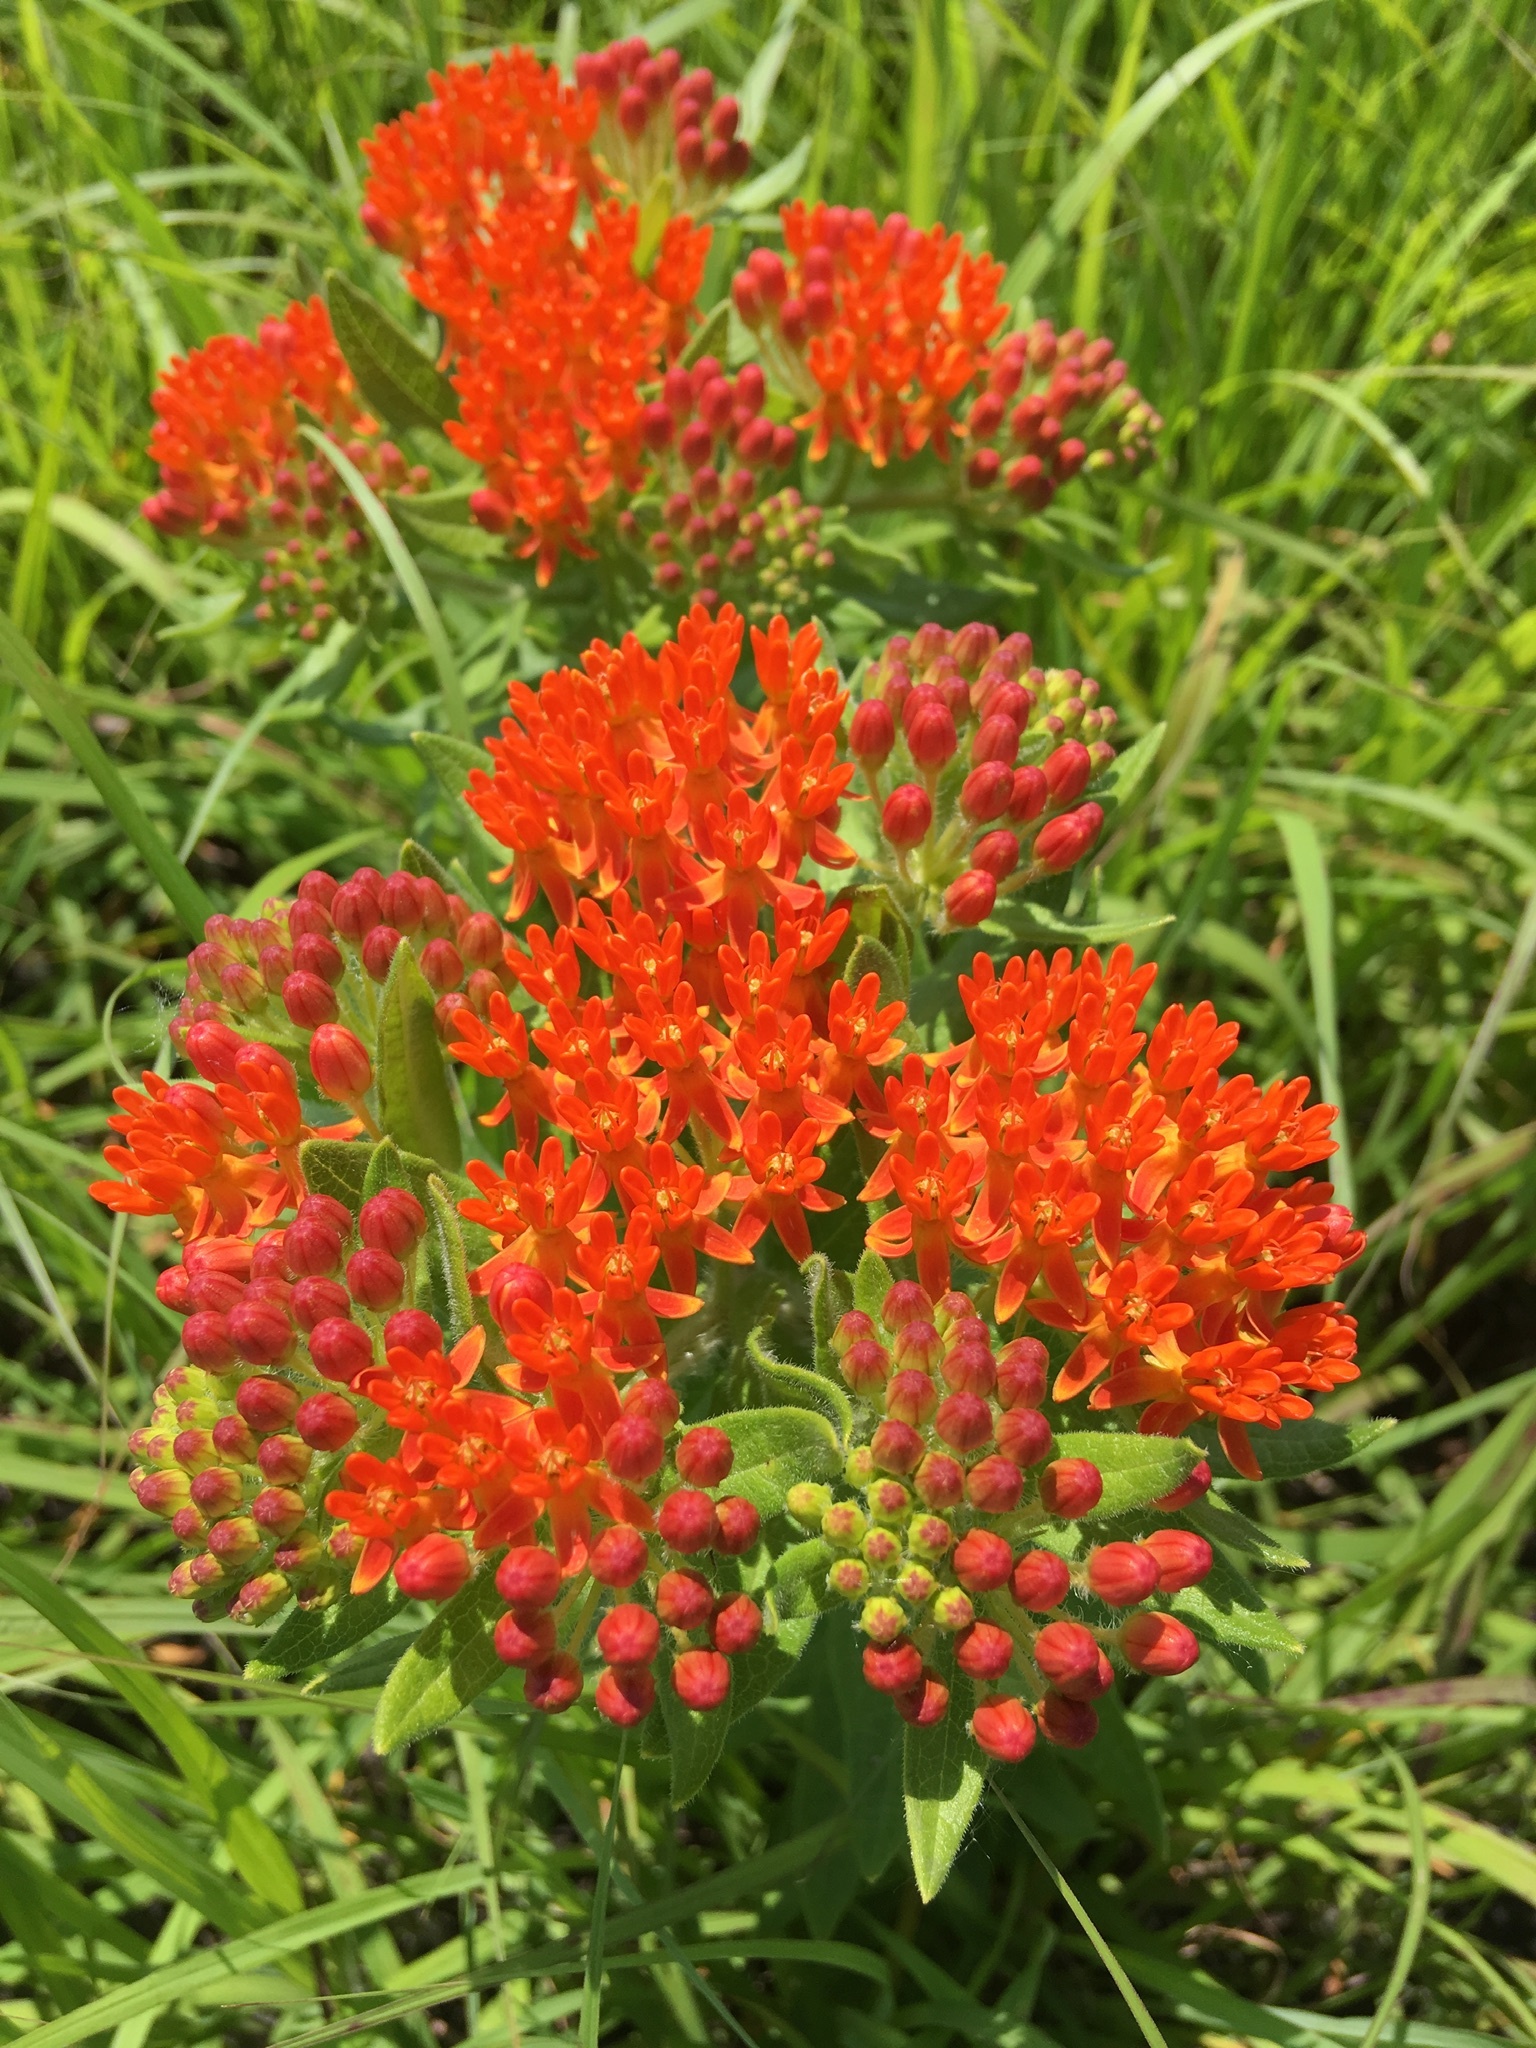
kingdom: Plantae
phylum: Tracheophyta
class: Magnoliopsida
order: Gentianales
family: Apocynaceae
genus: Asclepias
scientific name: Asclepias tuberosa
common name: Butterfly milkweed
